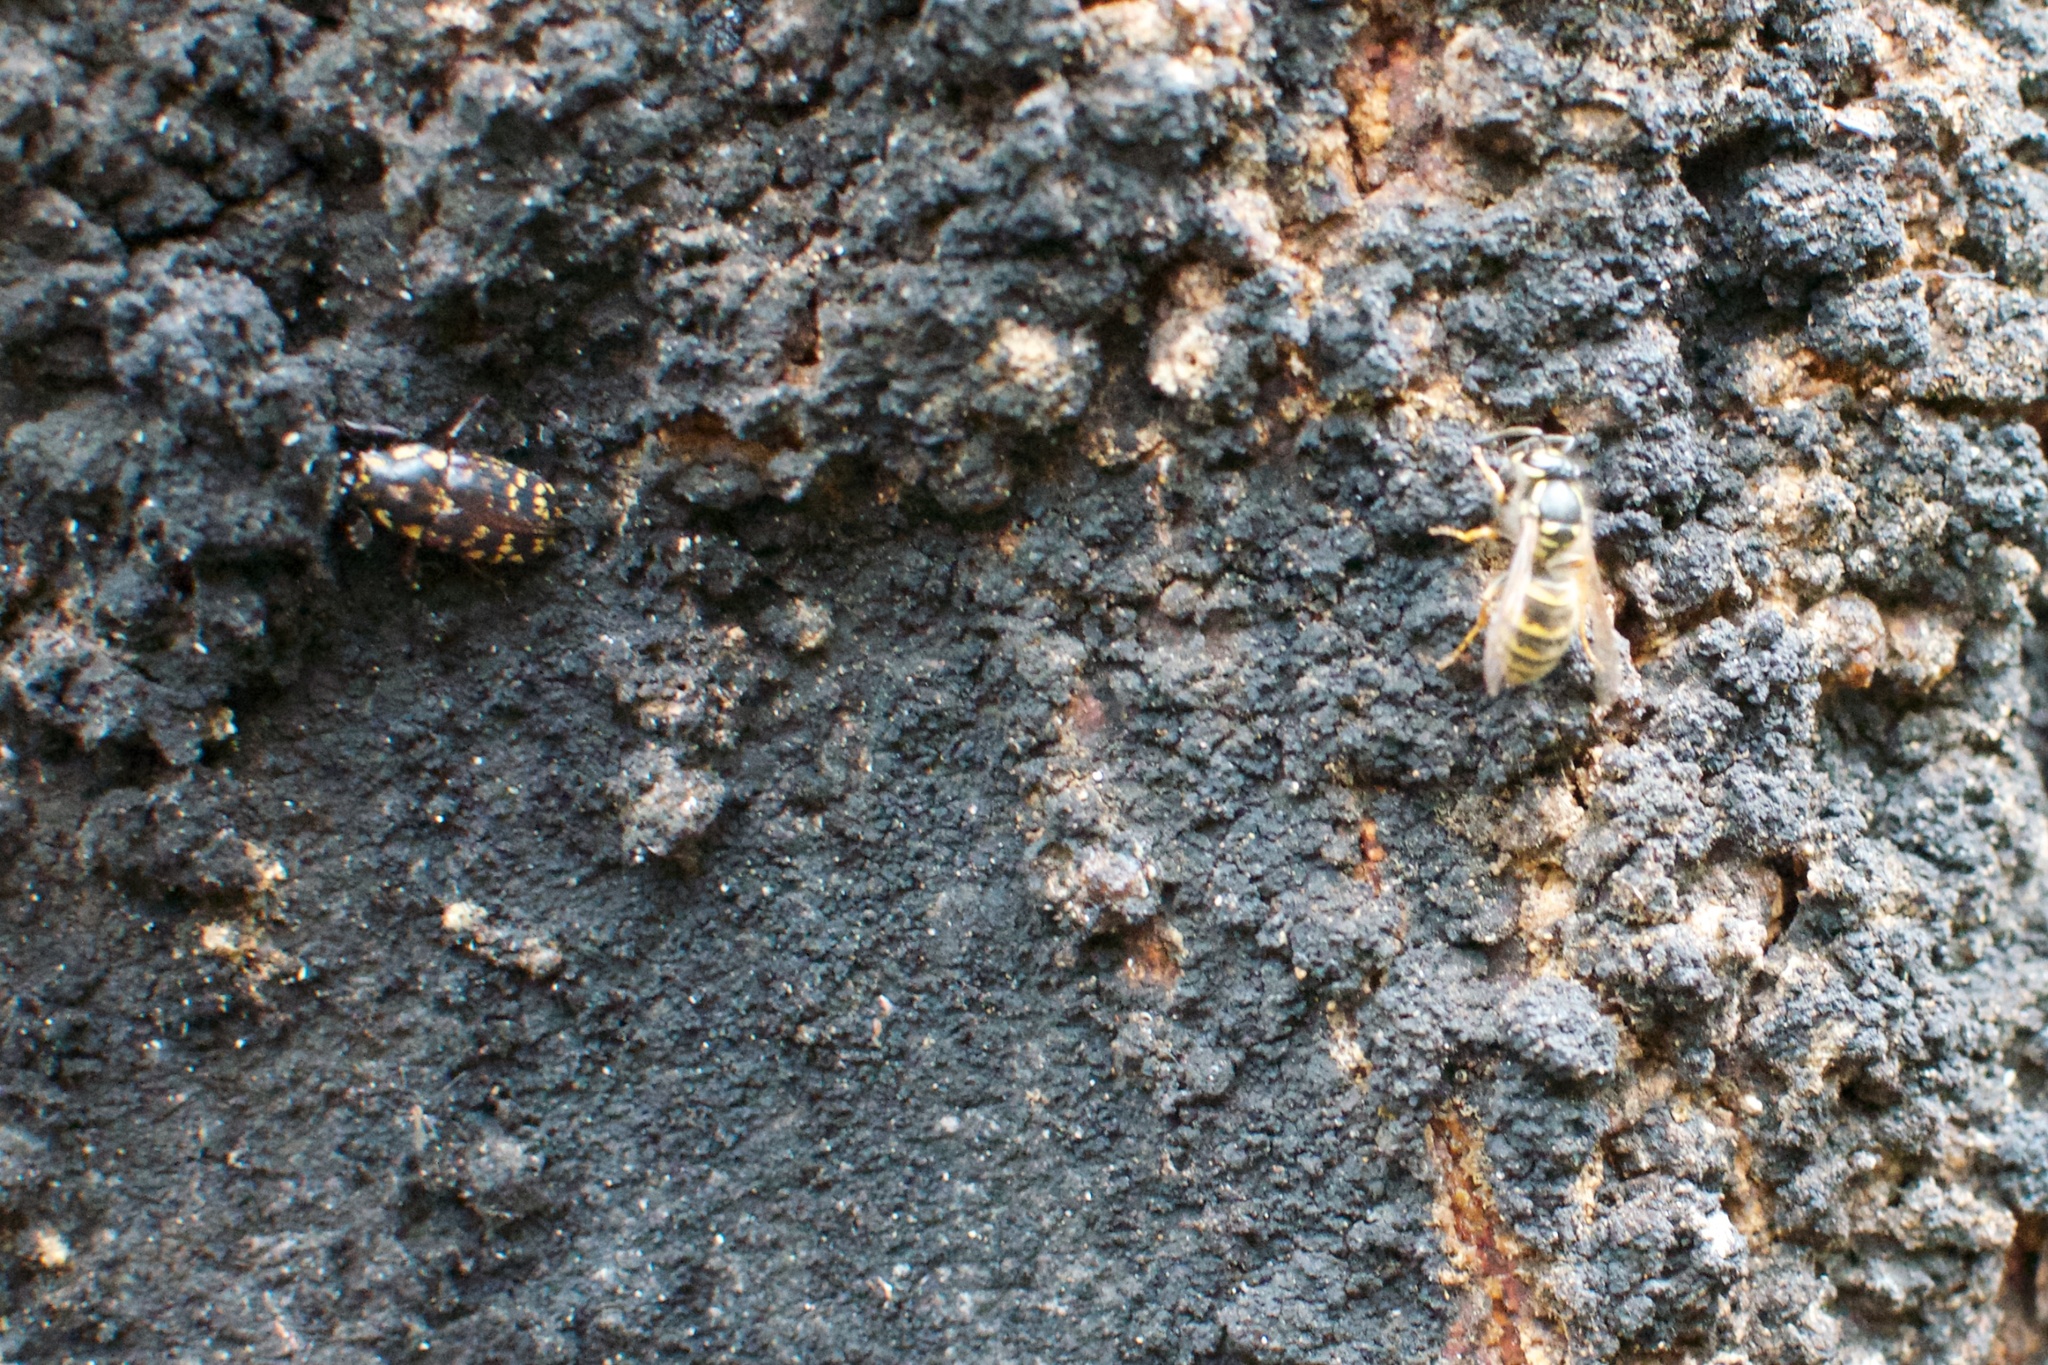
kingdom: Animalia
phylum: Arthropoda
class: Insecta
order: Coleoptera
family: Lucanidae
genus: Mitophyllus
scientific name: Mitophyllus foveolatus
